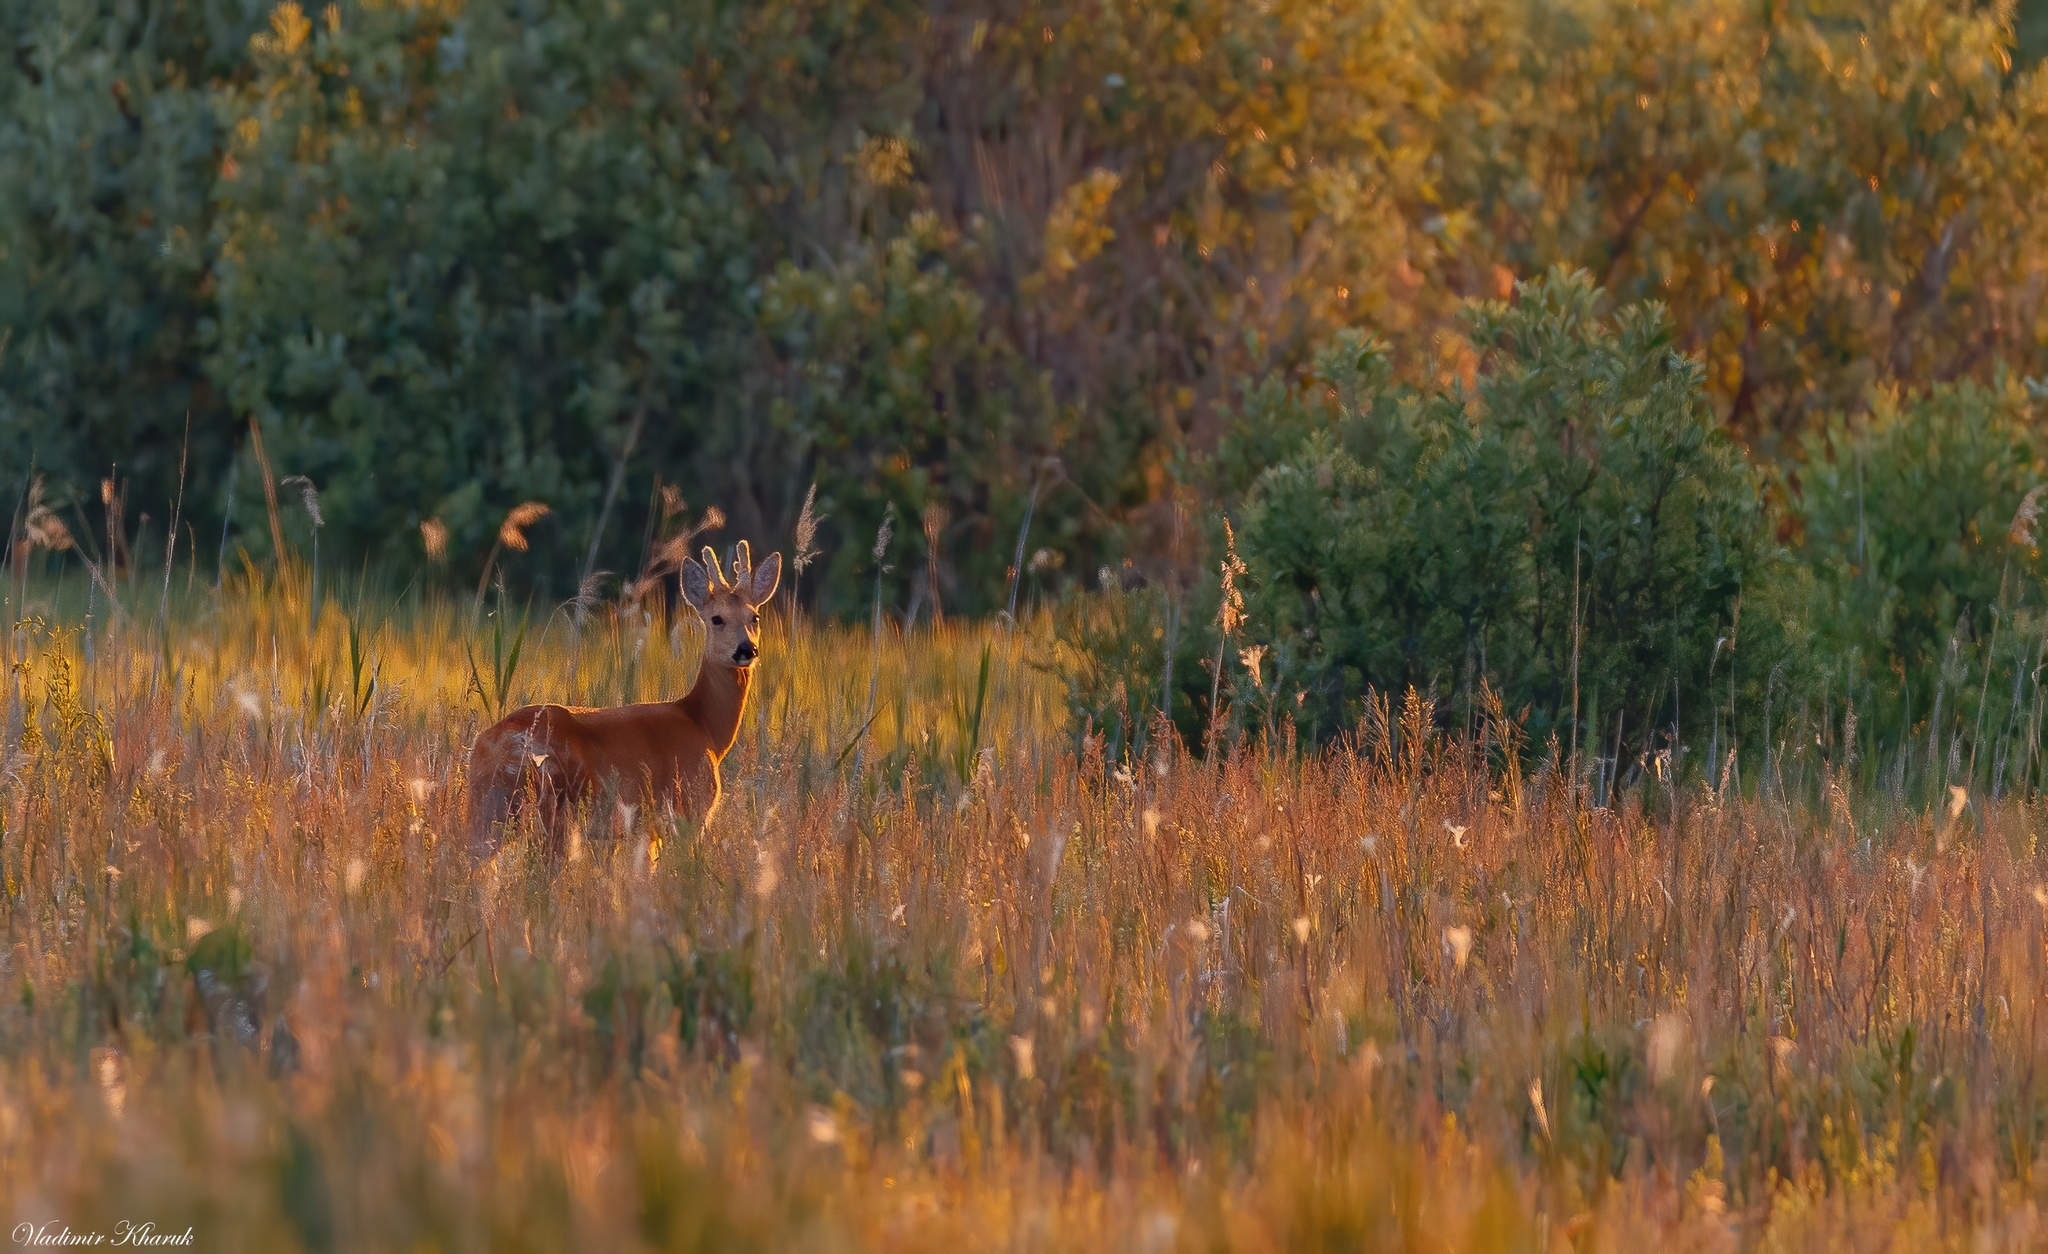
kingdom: Animalia
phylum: Chordata
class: Mammalia
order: Artiodactyla
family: Cervidae
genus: Capreolus
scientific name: Capreolus pygargus
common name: Siberian roe
